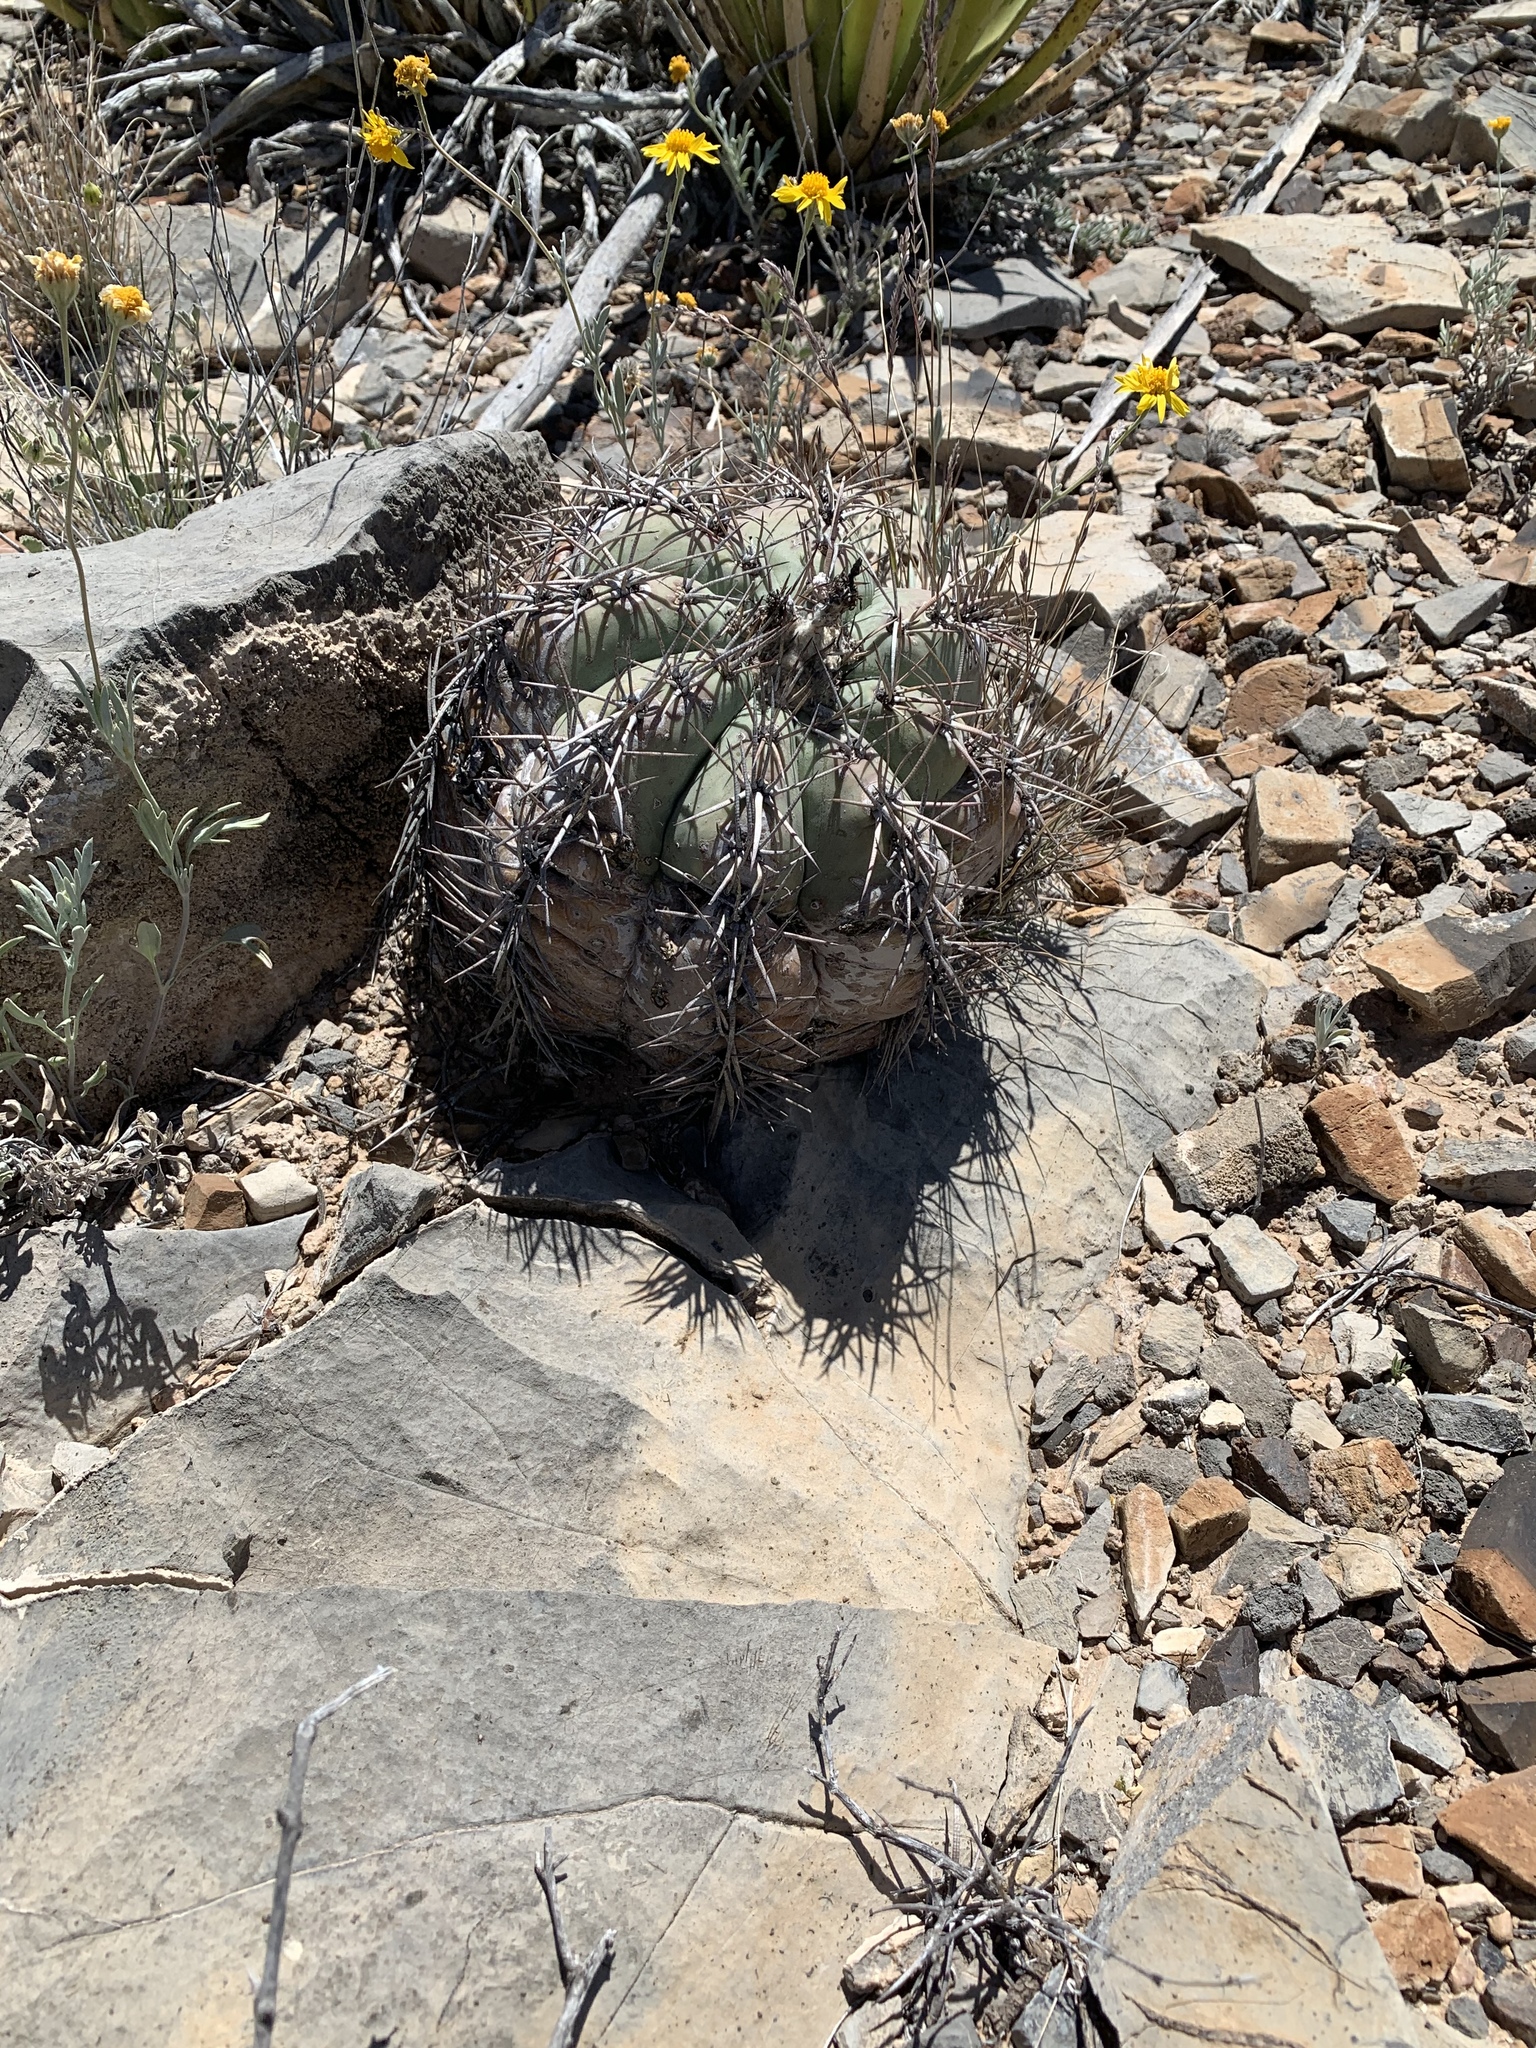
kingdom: Plantae
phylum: Tracheophyta
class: Magnoliopsida
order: Caryophyllales
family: Cactaceae
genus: Echinocactus
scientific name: Echinocactus horizonthalonius
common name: Devilshead
